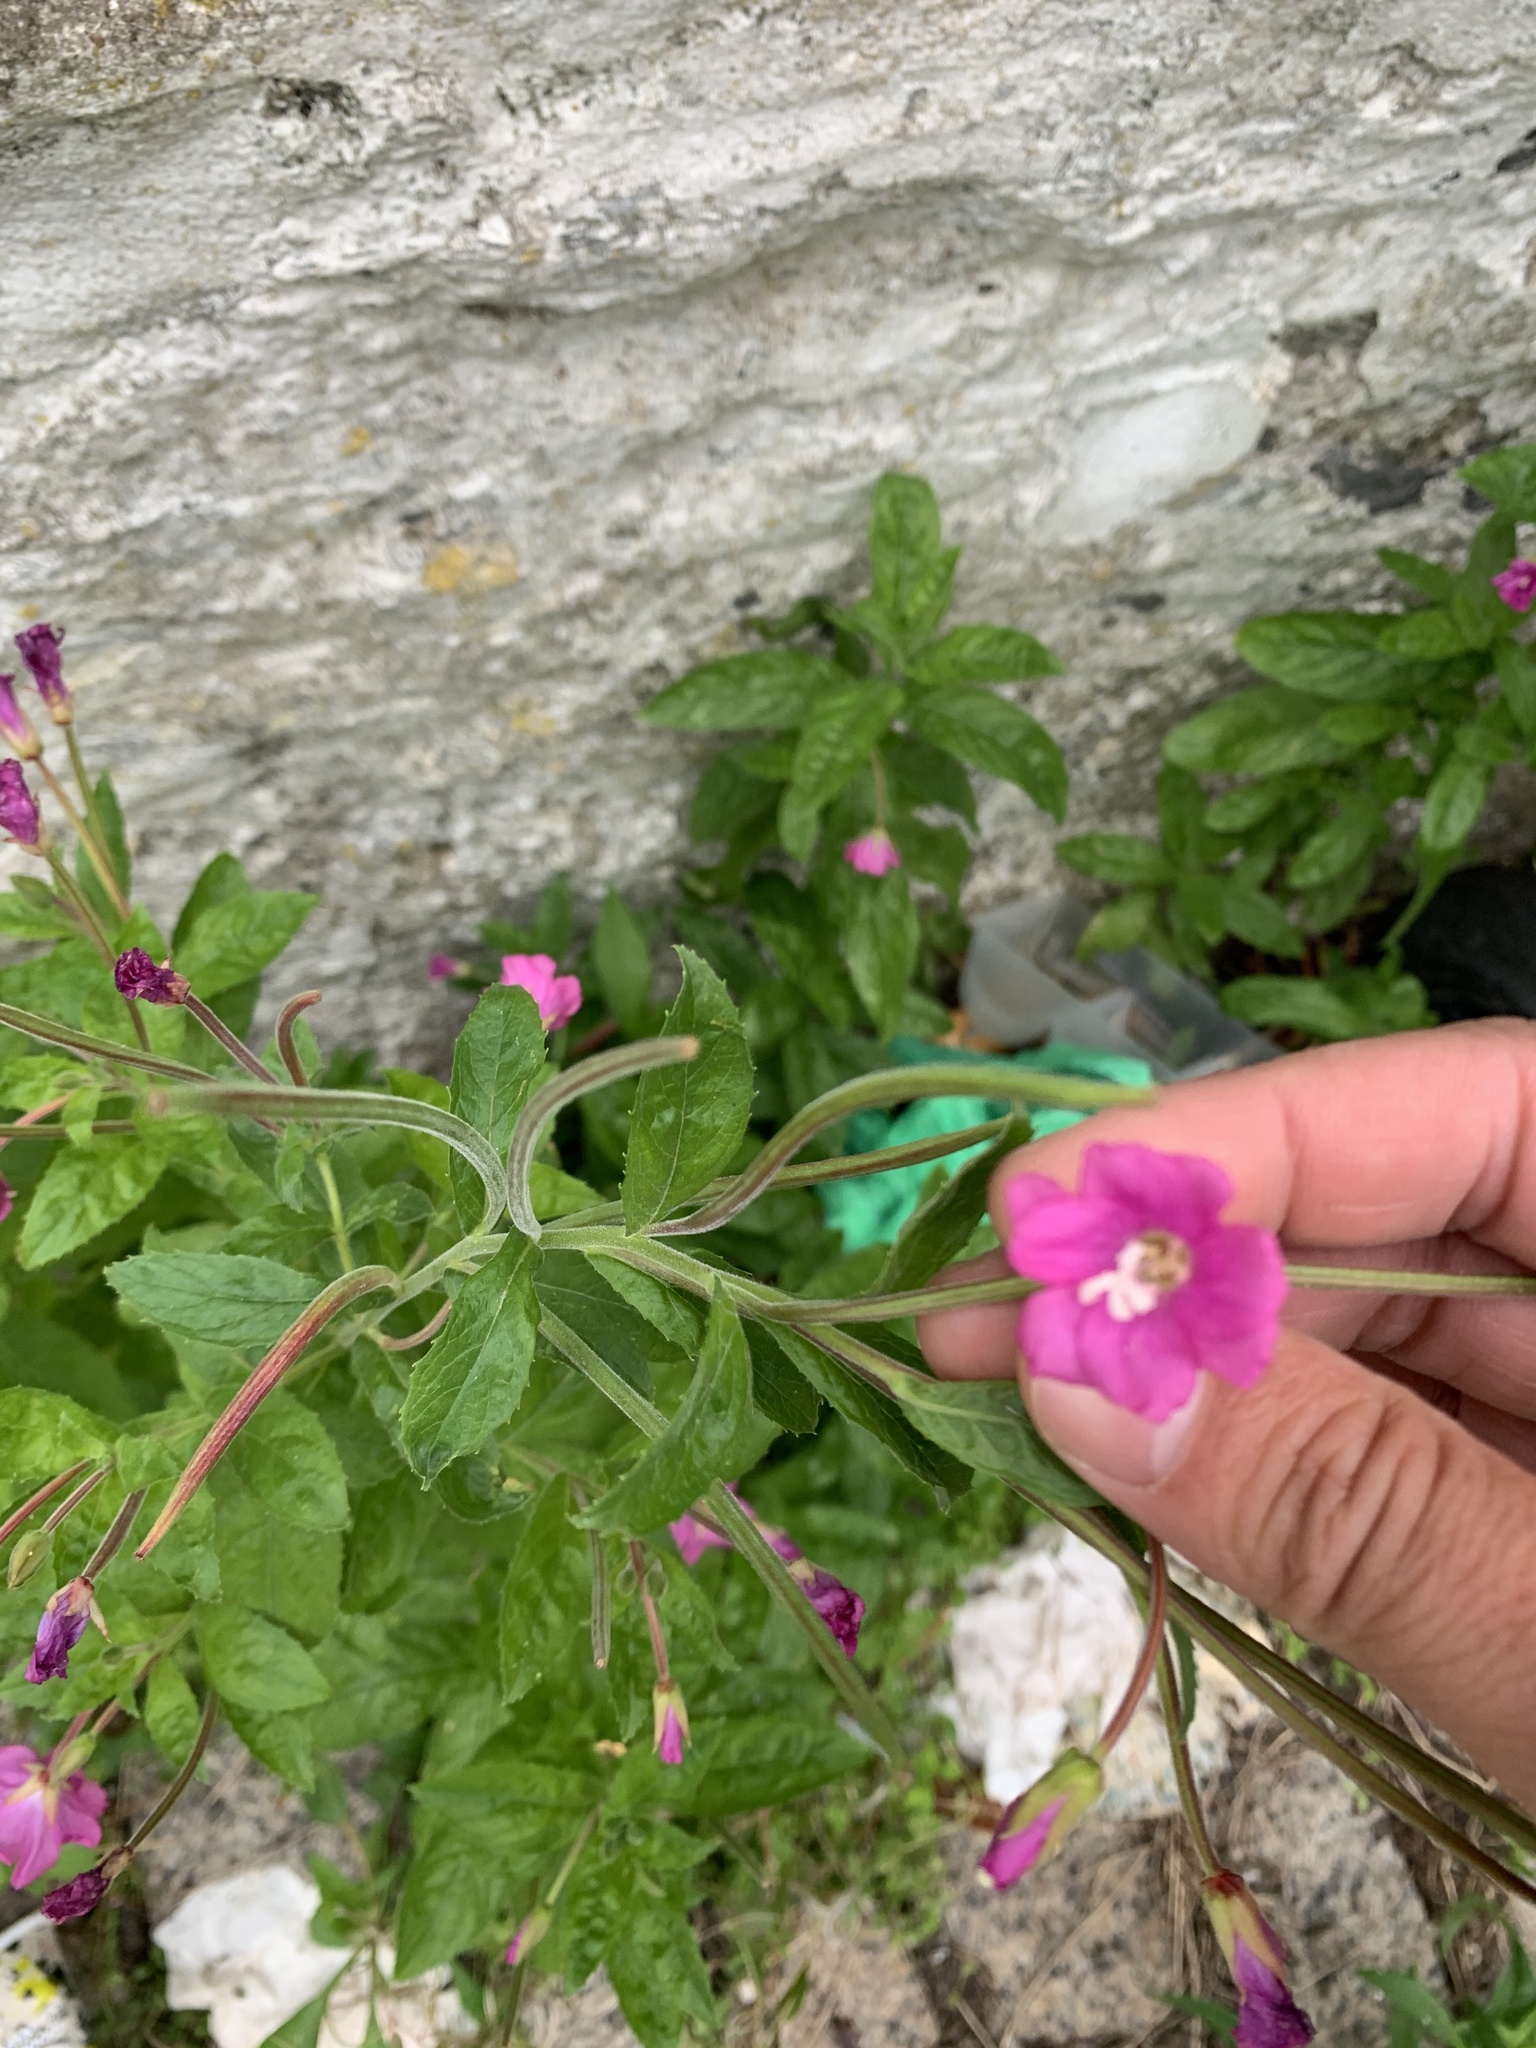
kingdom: Plantae
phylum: Tracheophyta
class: Magnoliopsida
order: Myrtales
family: Onagraceae
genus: Epilobium
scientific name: Epilobium hirsutum
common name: Great willowherb
